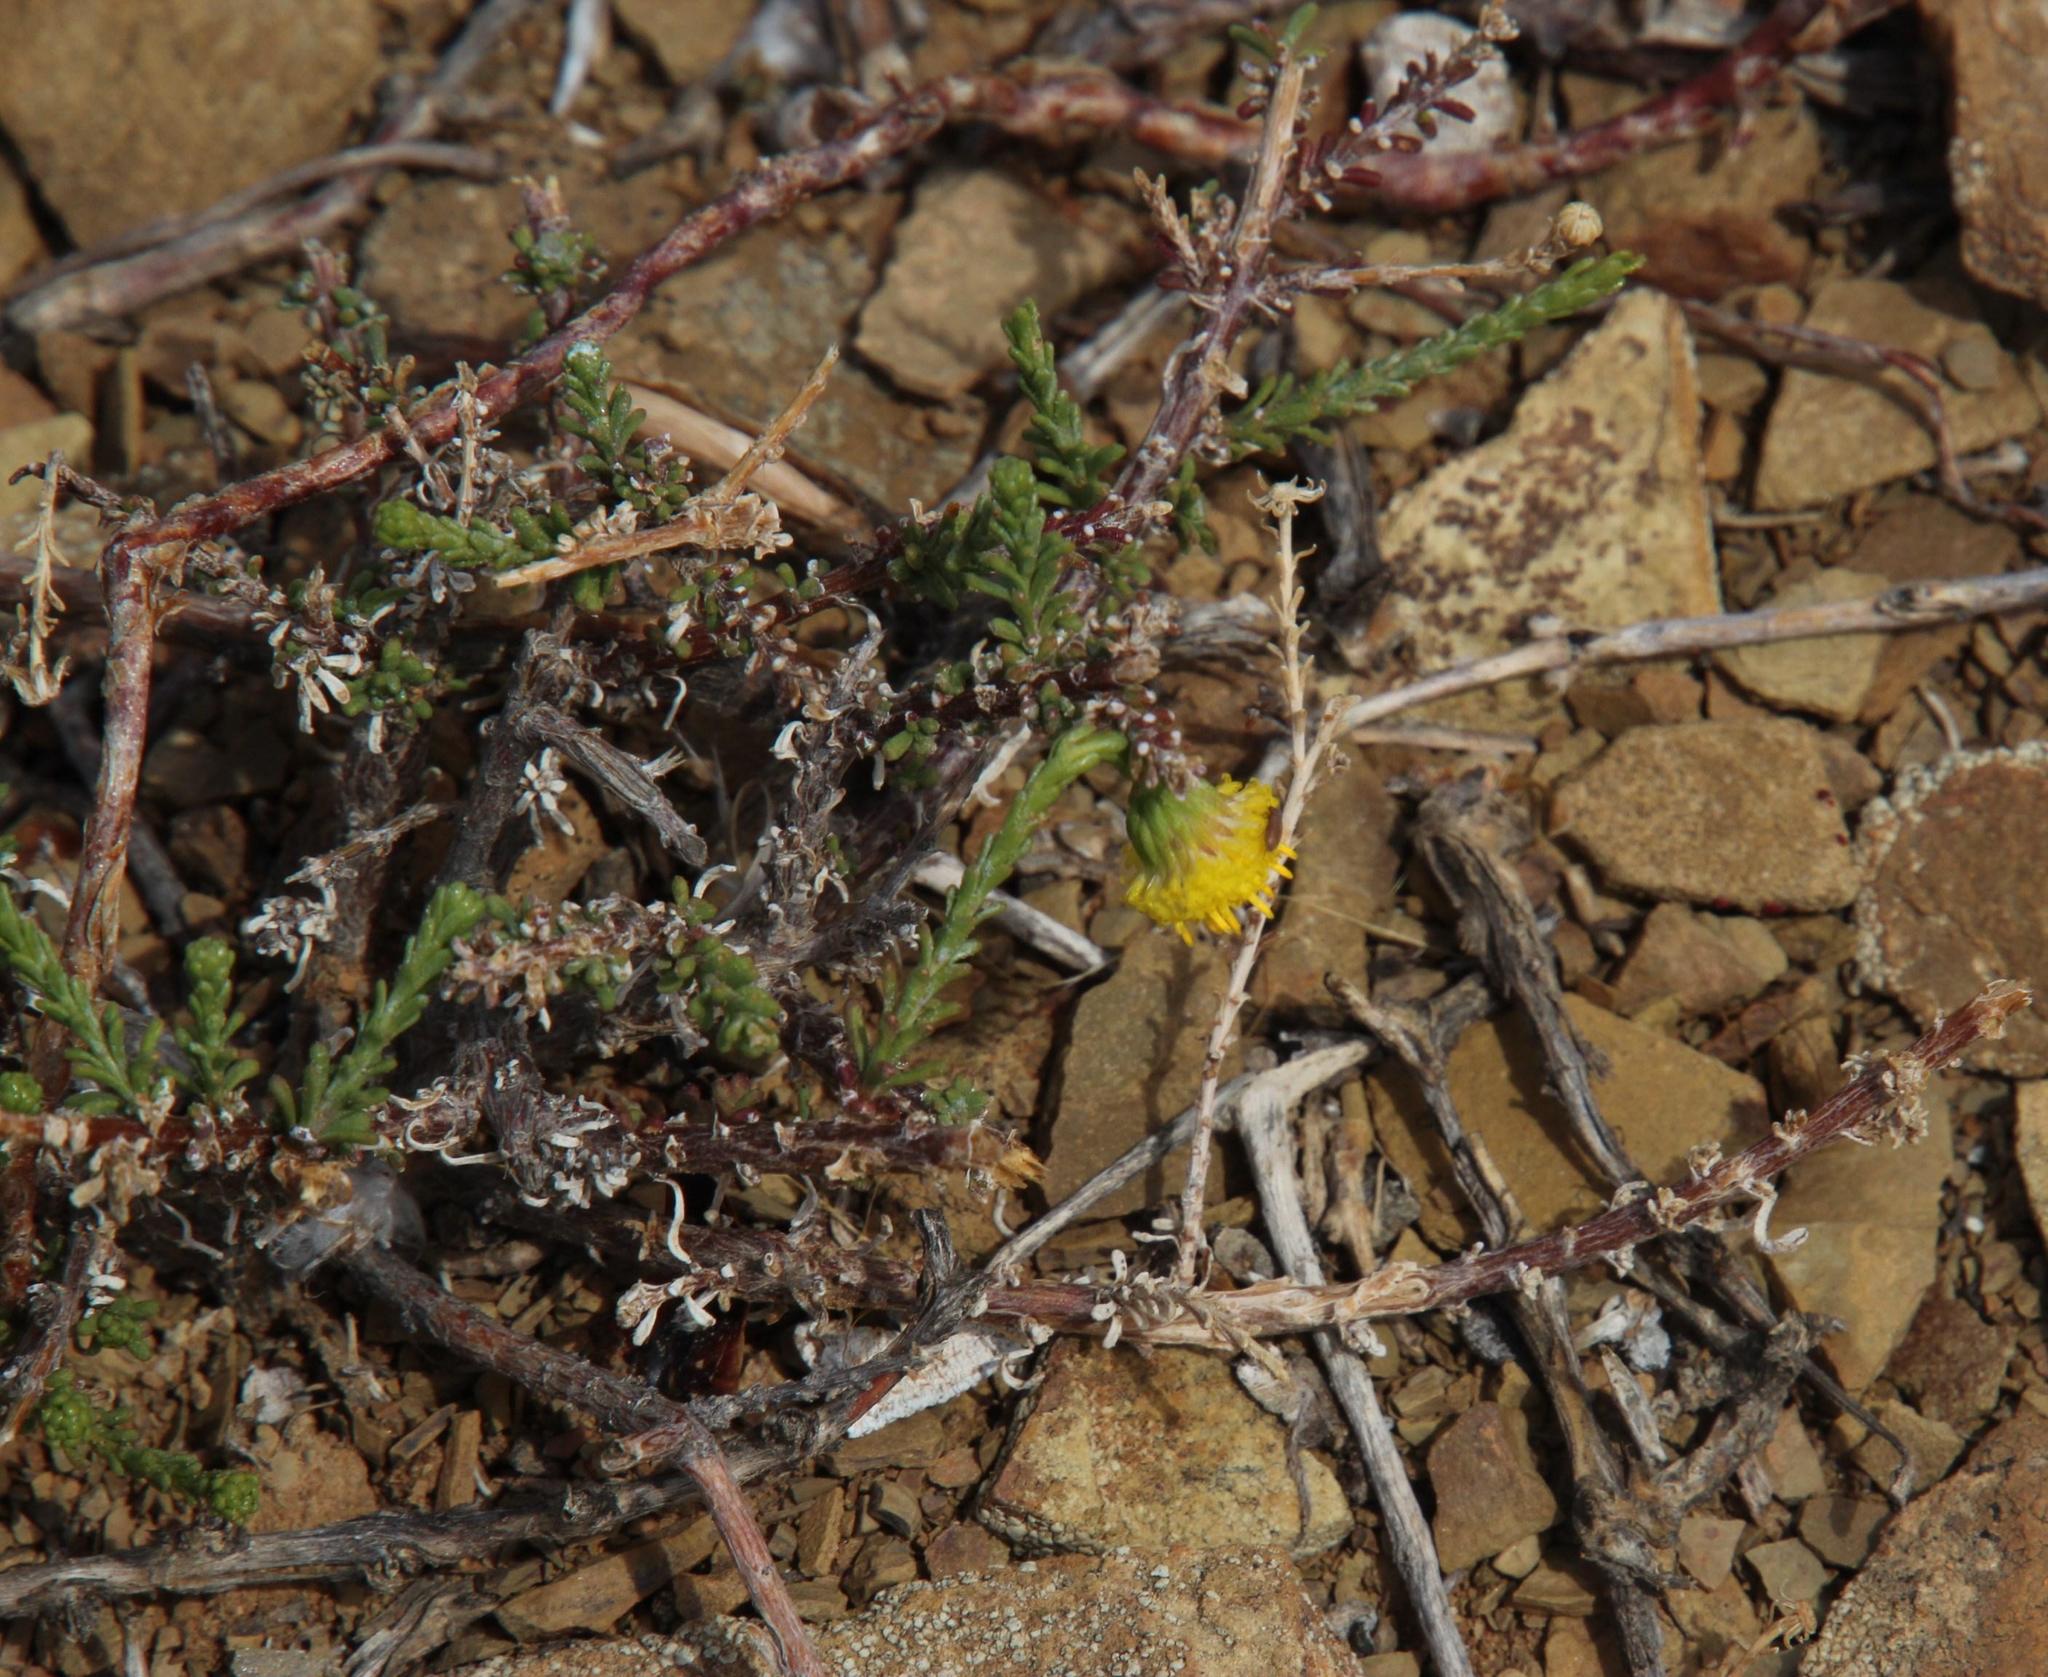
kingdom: Plantae
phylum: Tracheophyta
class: Magnoliopsida
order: Asterales
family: Asteraceae
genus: Chrysocoma
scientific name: Chrysocoma ciliata
